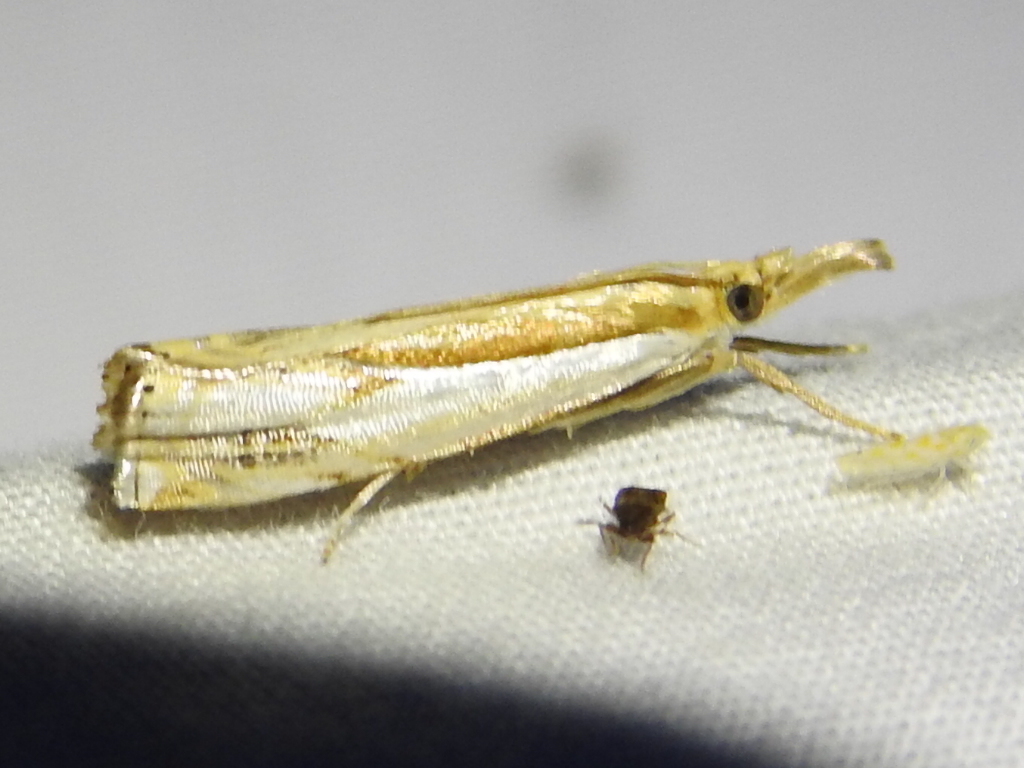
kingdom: Animalia
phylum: Arthropoda
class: Insecta
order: Lepidoptera
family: Crambidae
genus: Crambus
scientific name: Crambus agitatellus
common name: Double-banded grass-veneer
